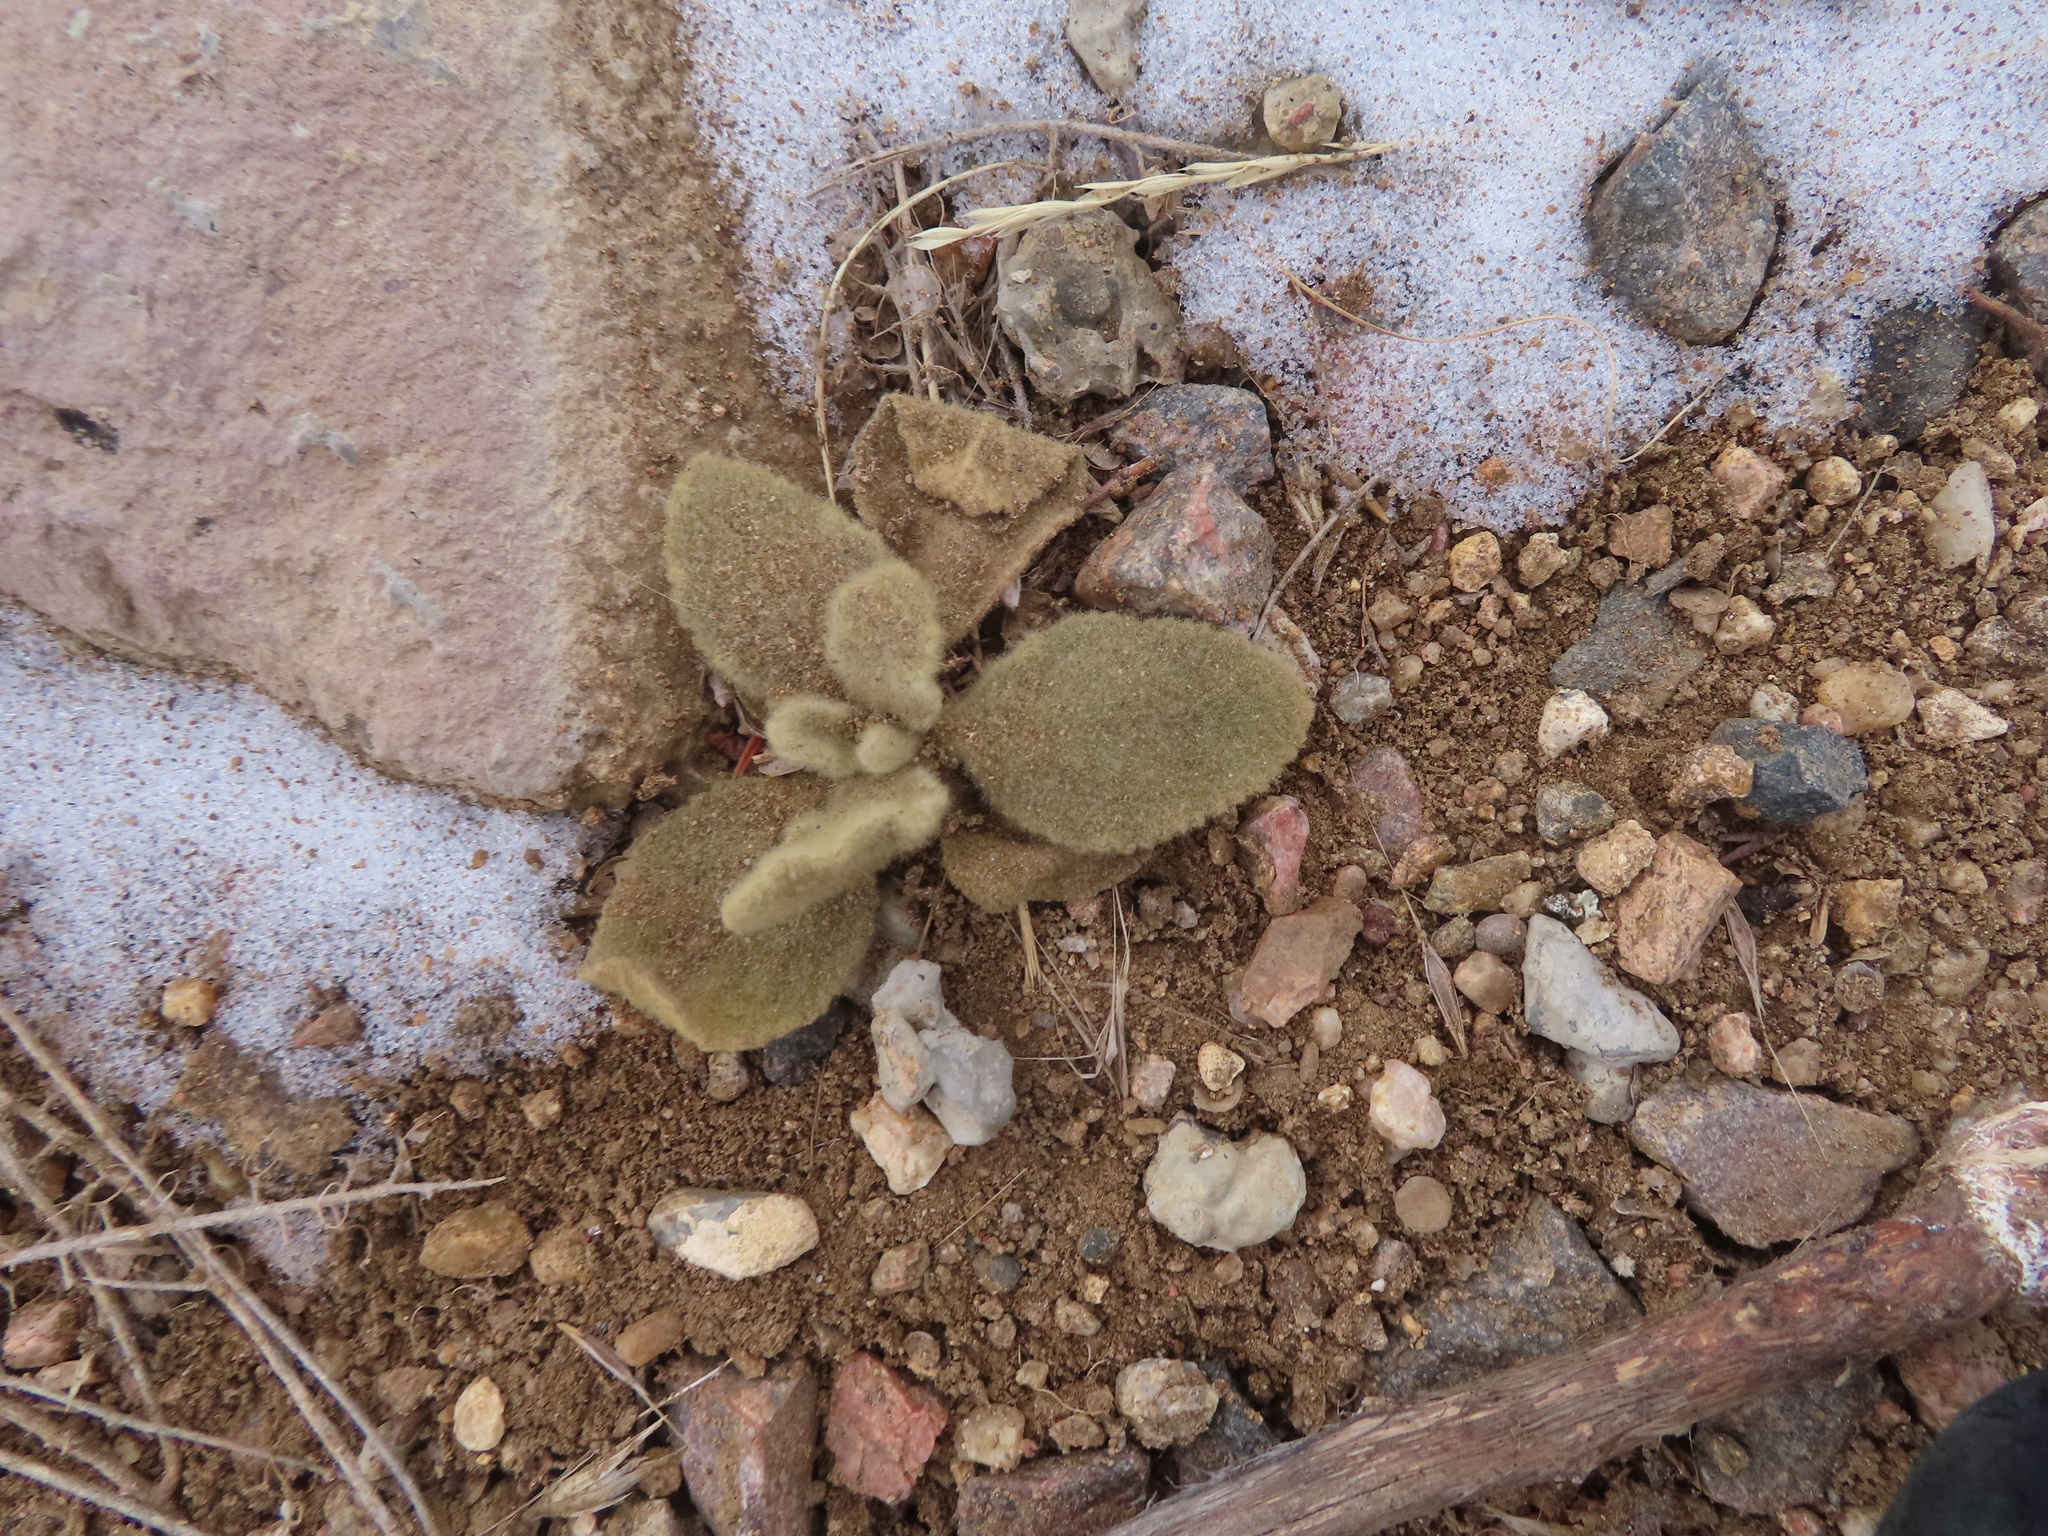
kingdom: Plantae
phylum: Tracheophyta
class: Magnoliopsida
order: Lamiales
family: Scrophulariaceae
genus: Verbascum
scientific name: Verbascum thapsus
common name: Common mullein
